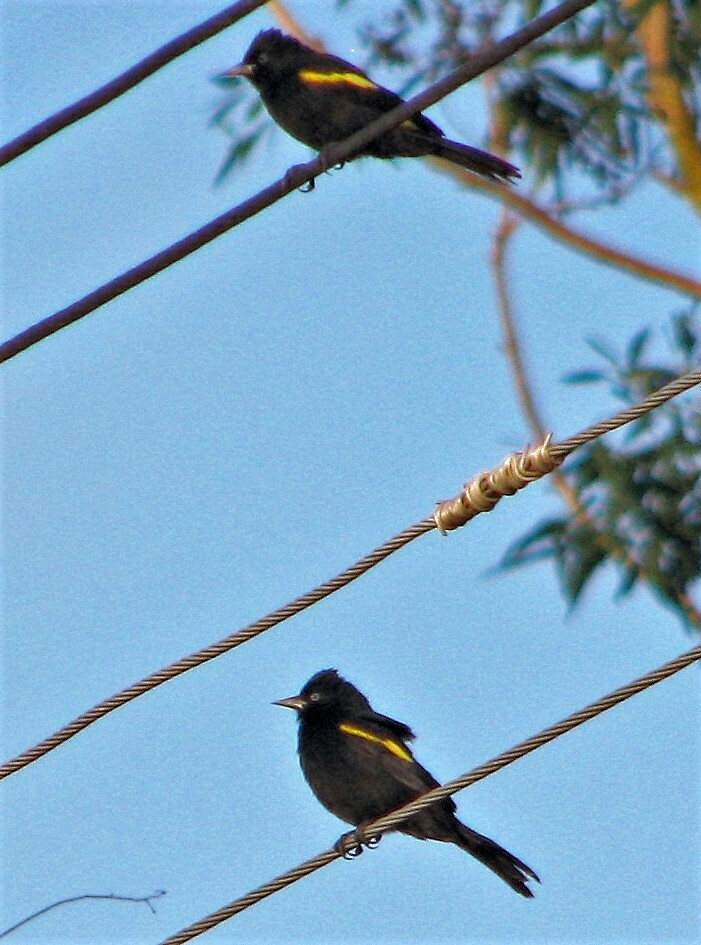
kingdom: Animalia
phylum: Chordata
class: Aves
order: Passeriformes
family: Icteridae
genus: Cacicus
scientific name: Cacicus chrysopterus
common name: Golden-winged cacique
